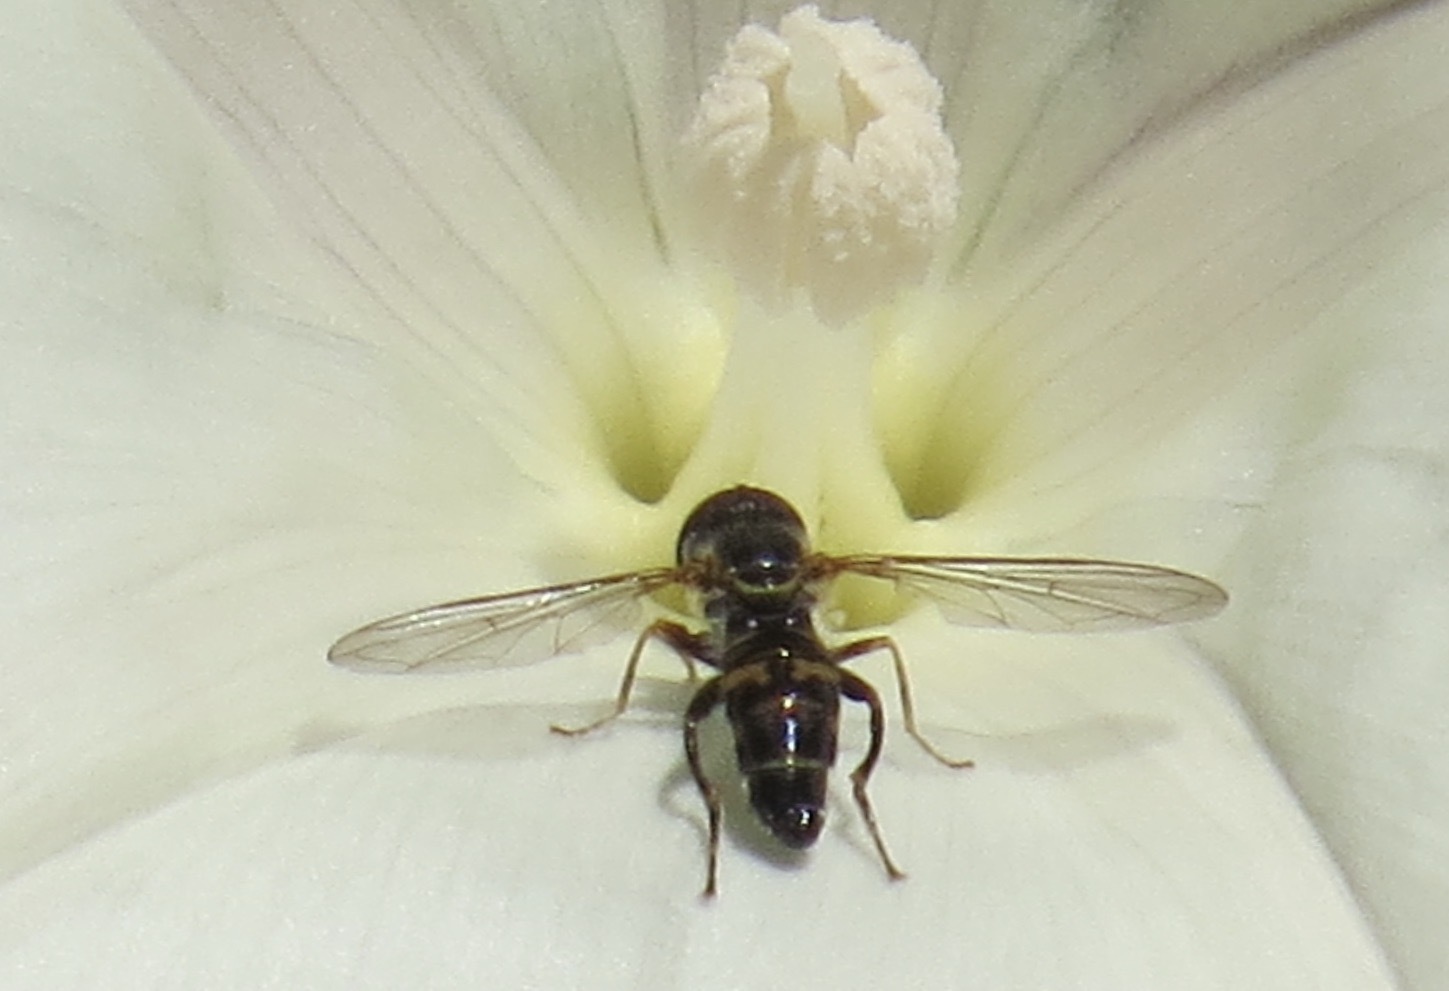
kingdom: Animalia
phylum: Arthropoda
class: Insecta
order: Diptera
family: Syrphidae
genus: Toxomerus
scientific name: Toxomerus occidentalis
